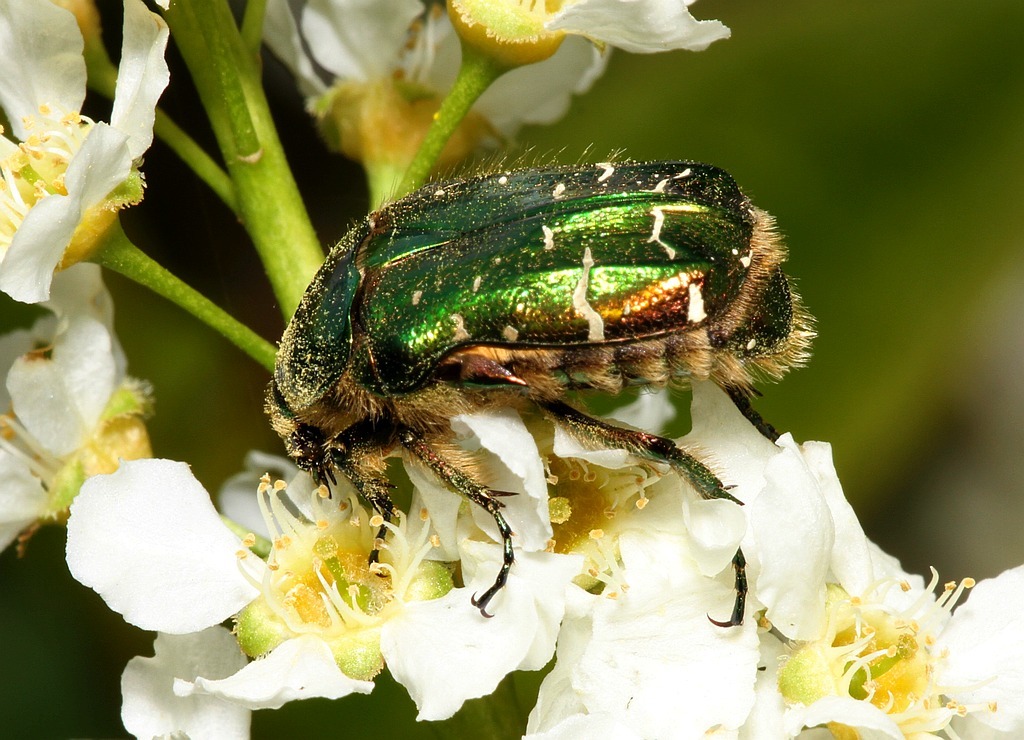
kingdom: Animalia
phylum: Arthropoda
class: Insecta
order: Coleoptera
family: Scarabaeidae
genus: Cetonia
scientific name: Cetonia aurata
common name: Rose chafer
